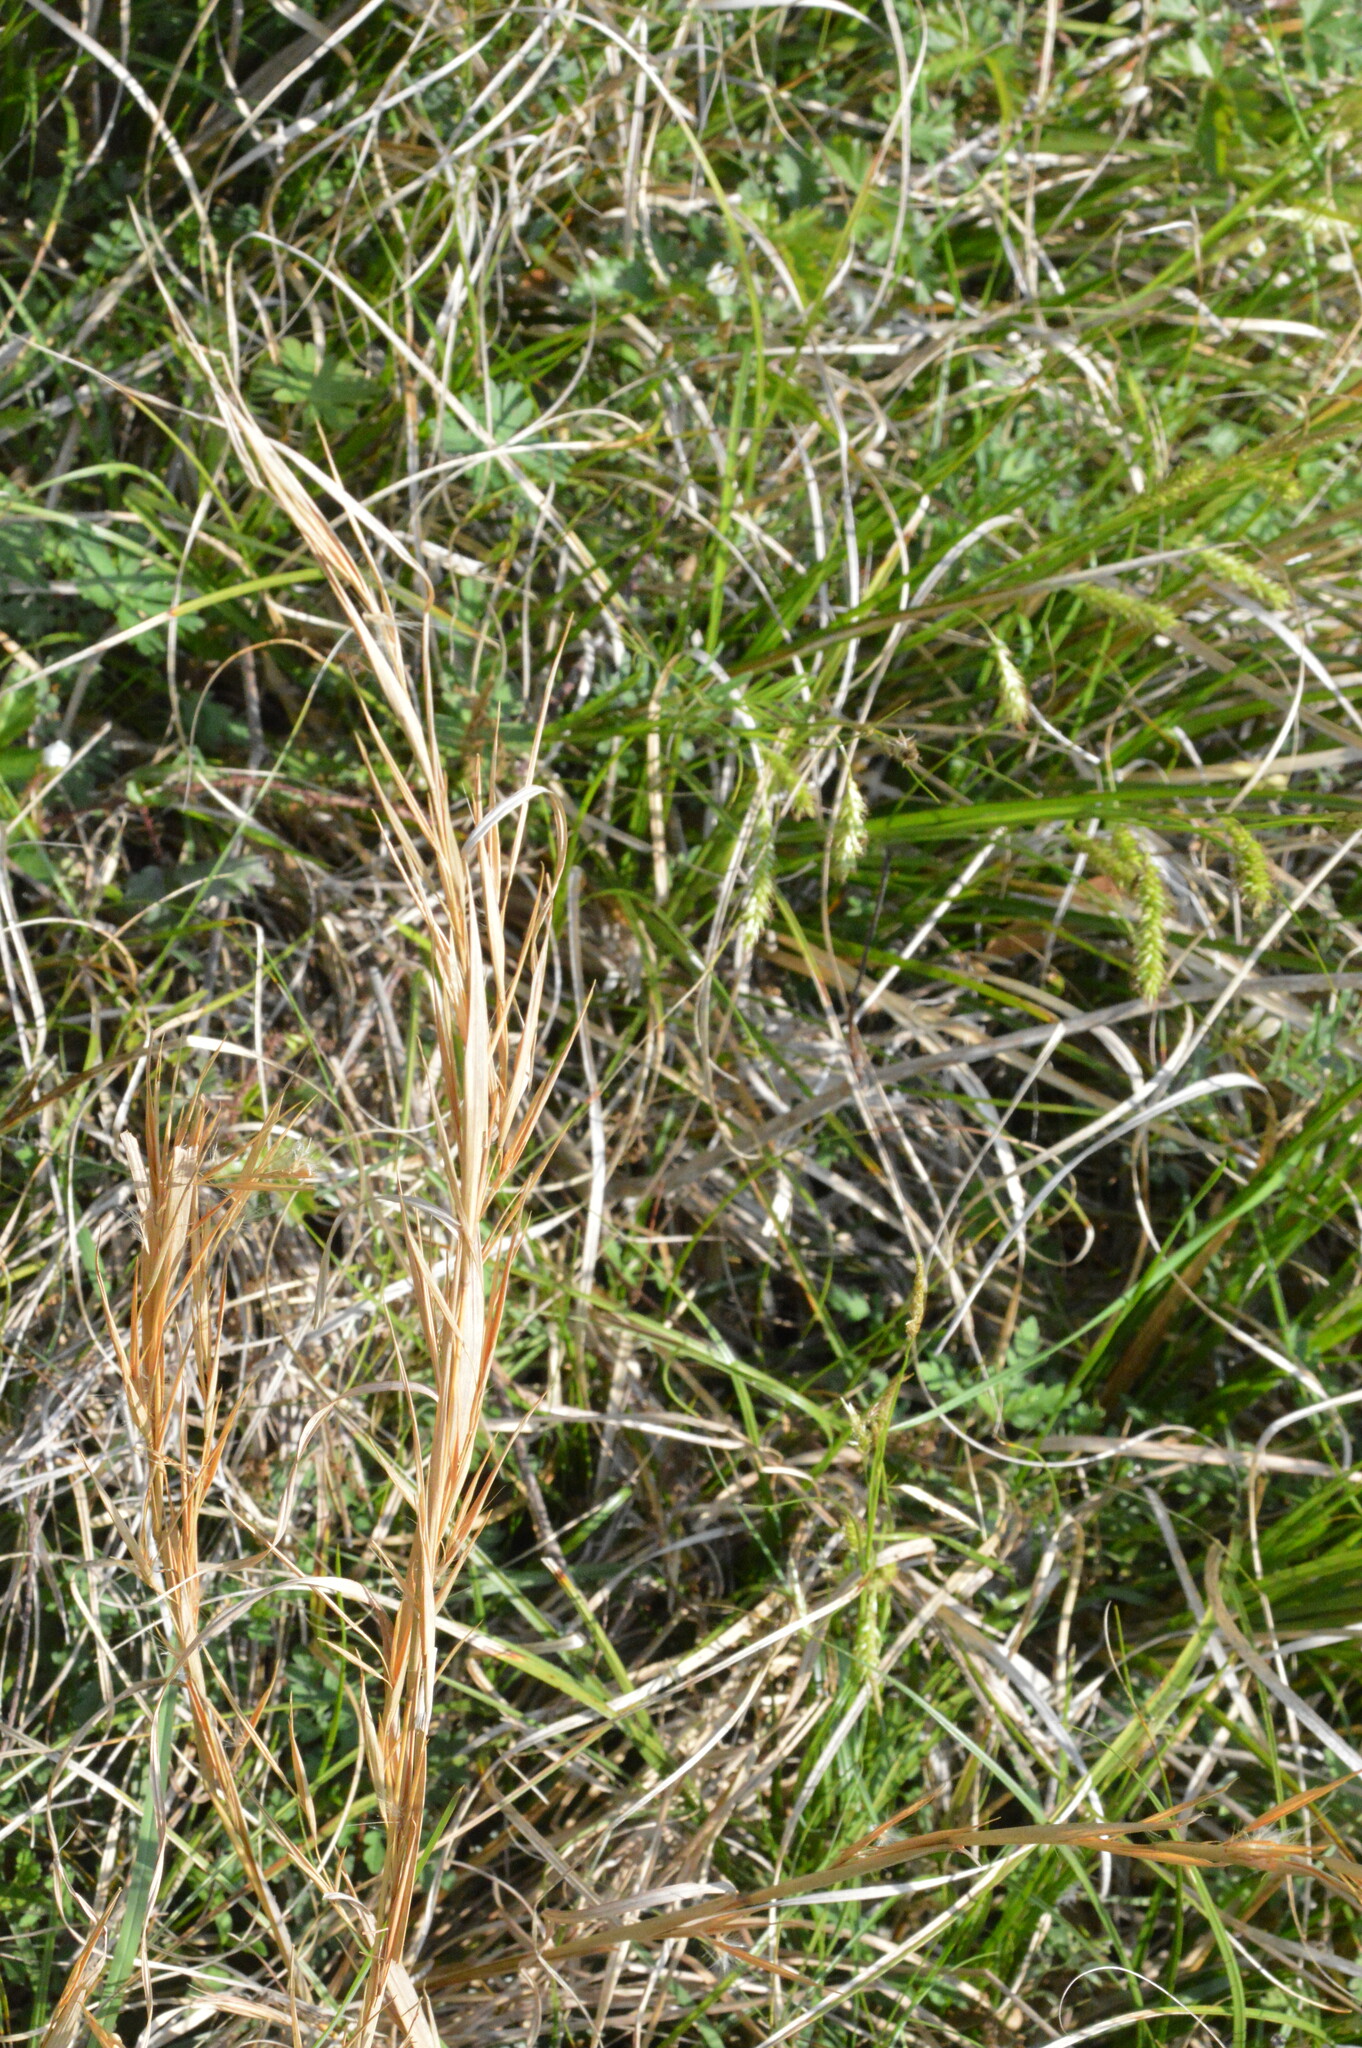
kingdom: Plantae
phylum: Tracheophyta
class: Liliopsida
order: Poales
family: Poaceae
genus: Andropogon
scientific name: Andropogon virginicus
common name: Broomsedge bluestem
